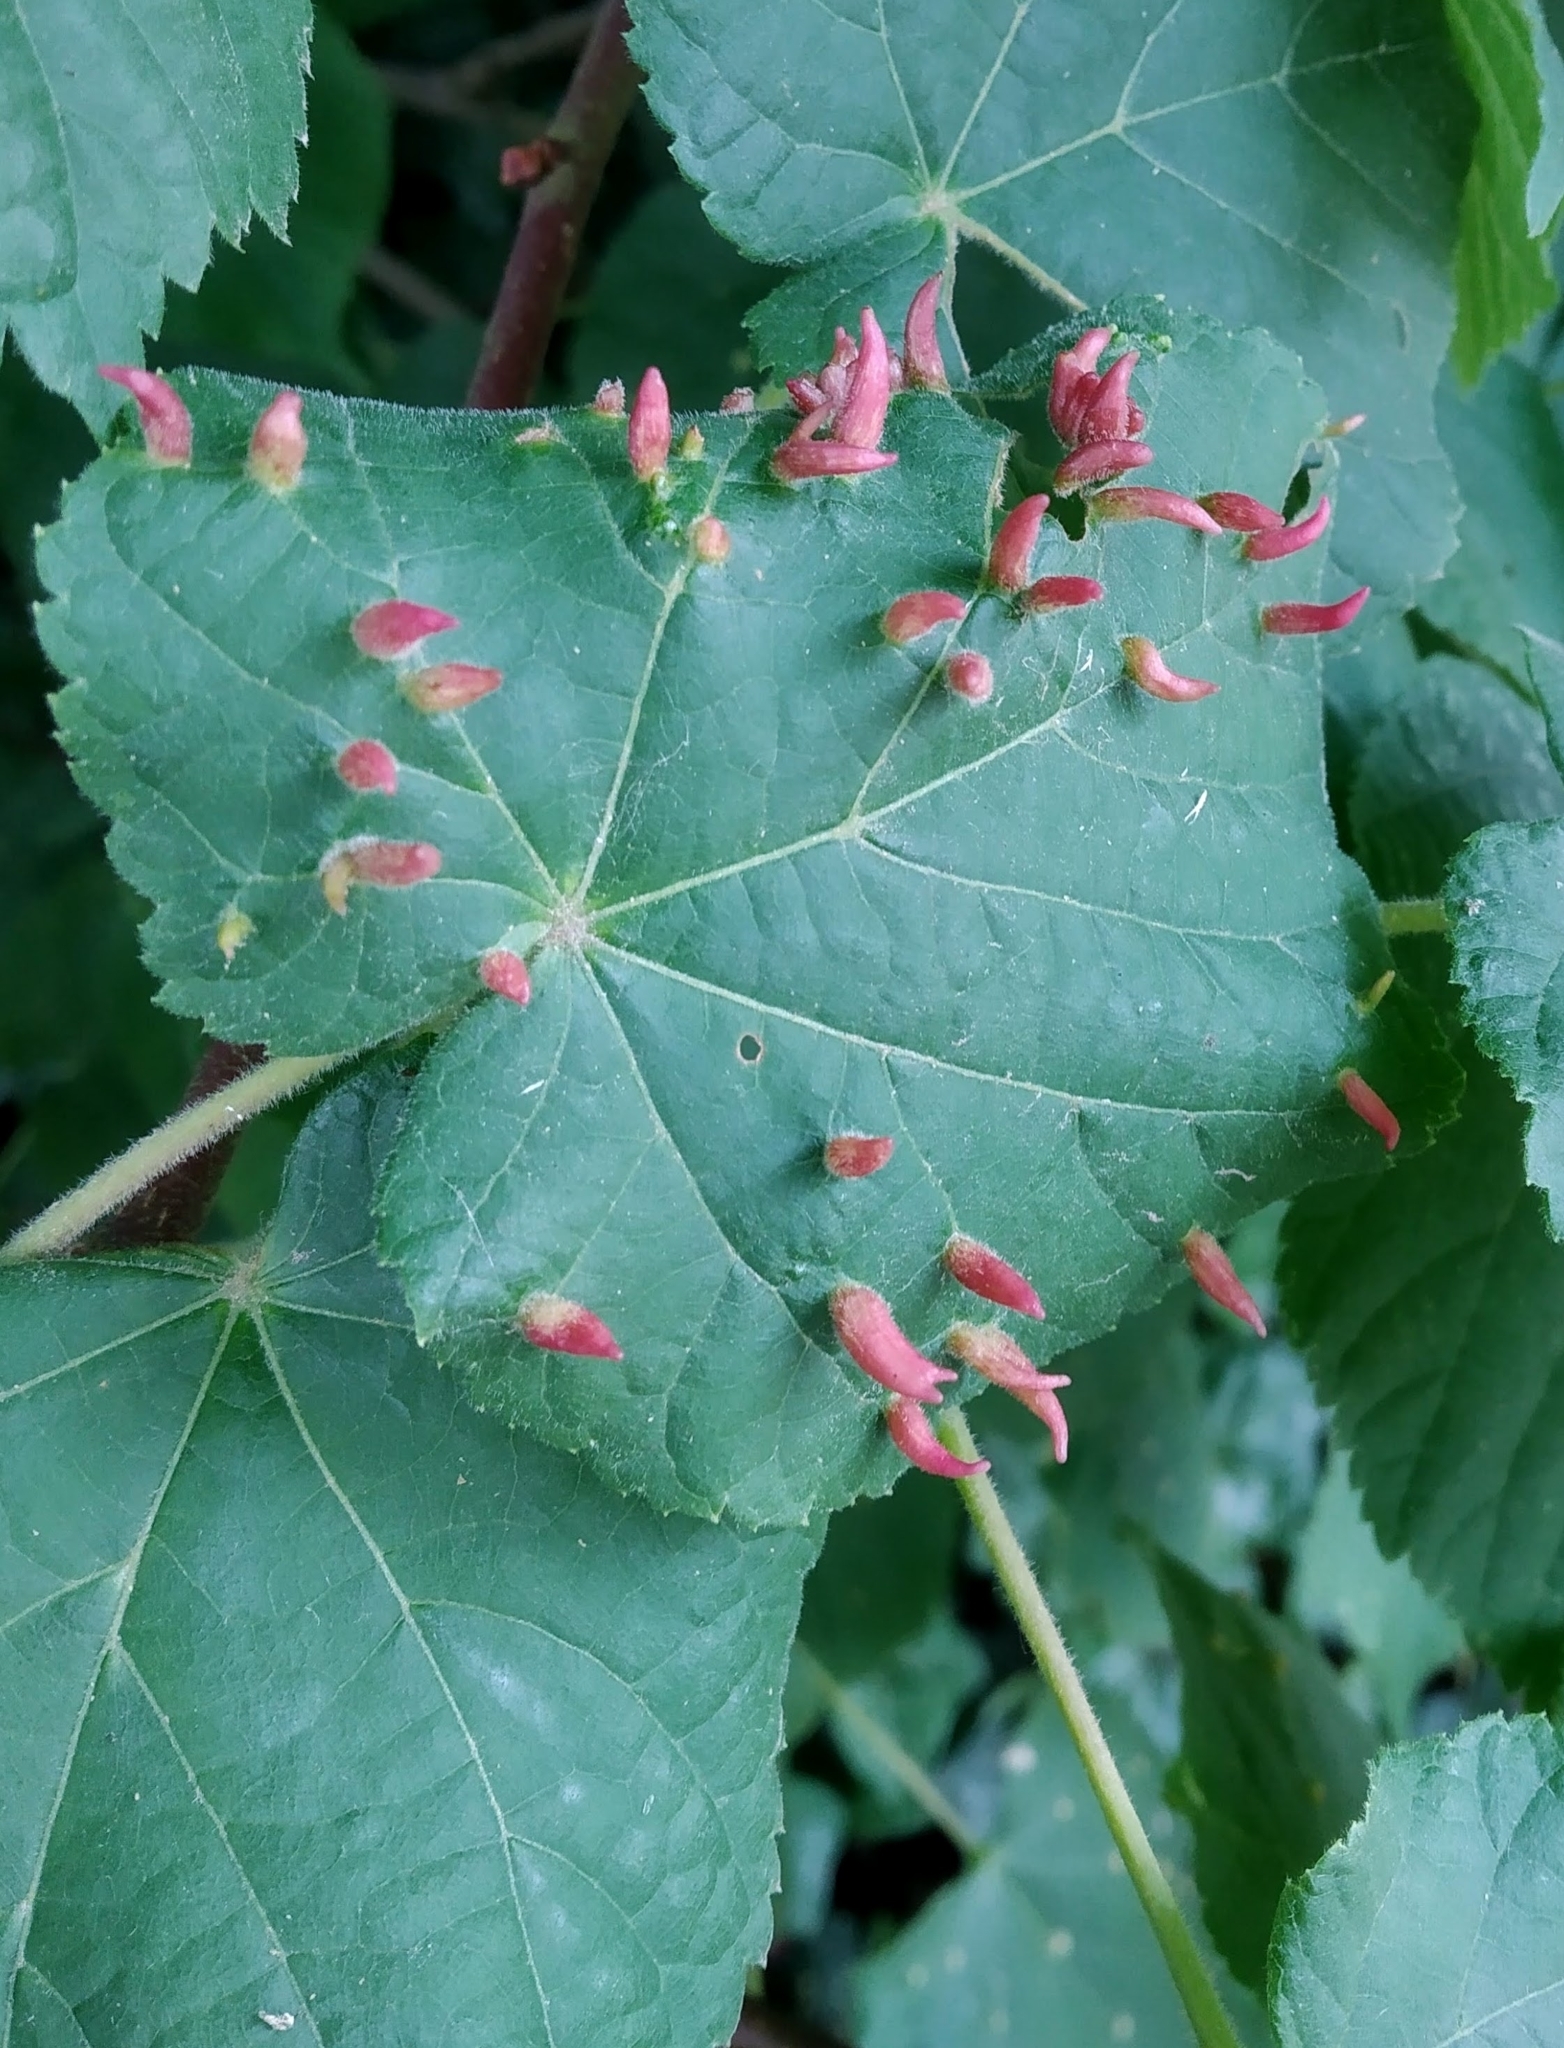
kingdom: Animalia
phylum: Arthropoda
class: Arachnida
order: Trombidiformes
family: Eriophyidae
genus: Eriophyes
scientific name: Eriophyes tiliae
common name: Red nail gall mite
